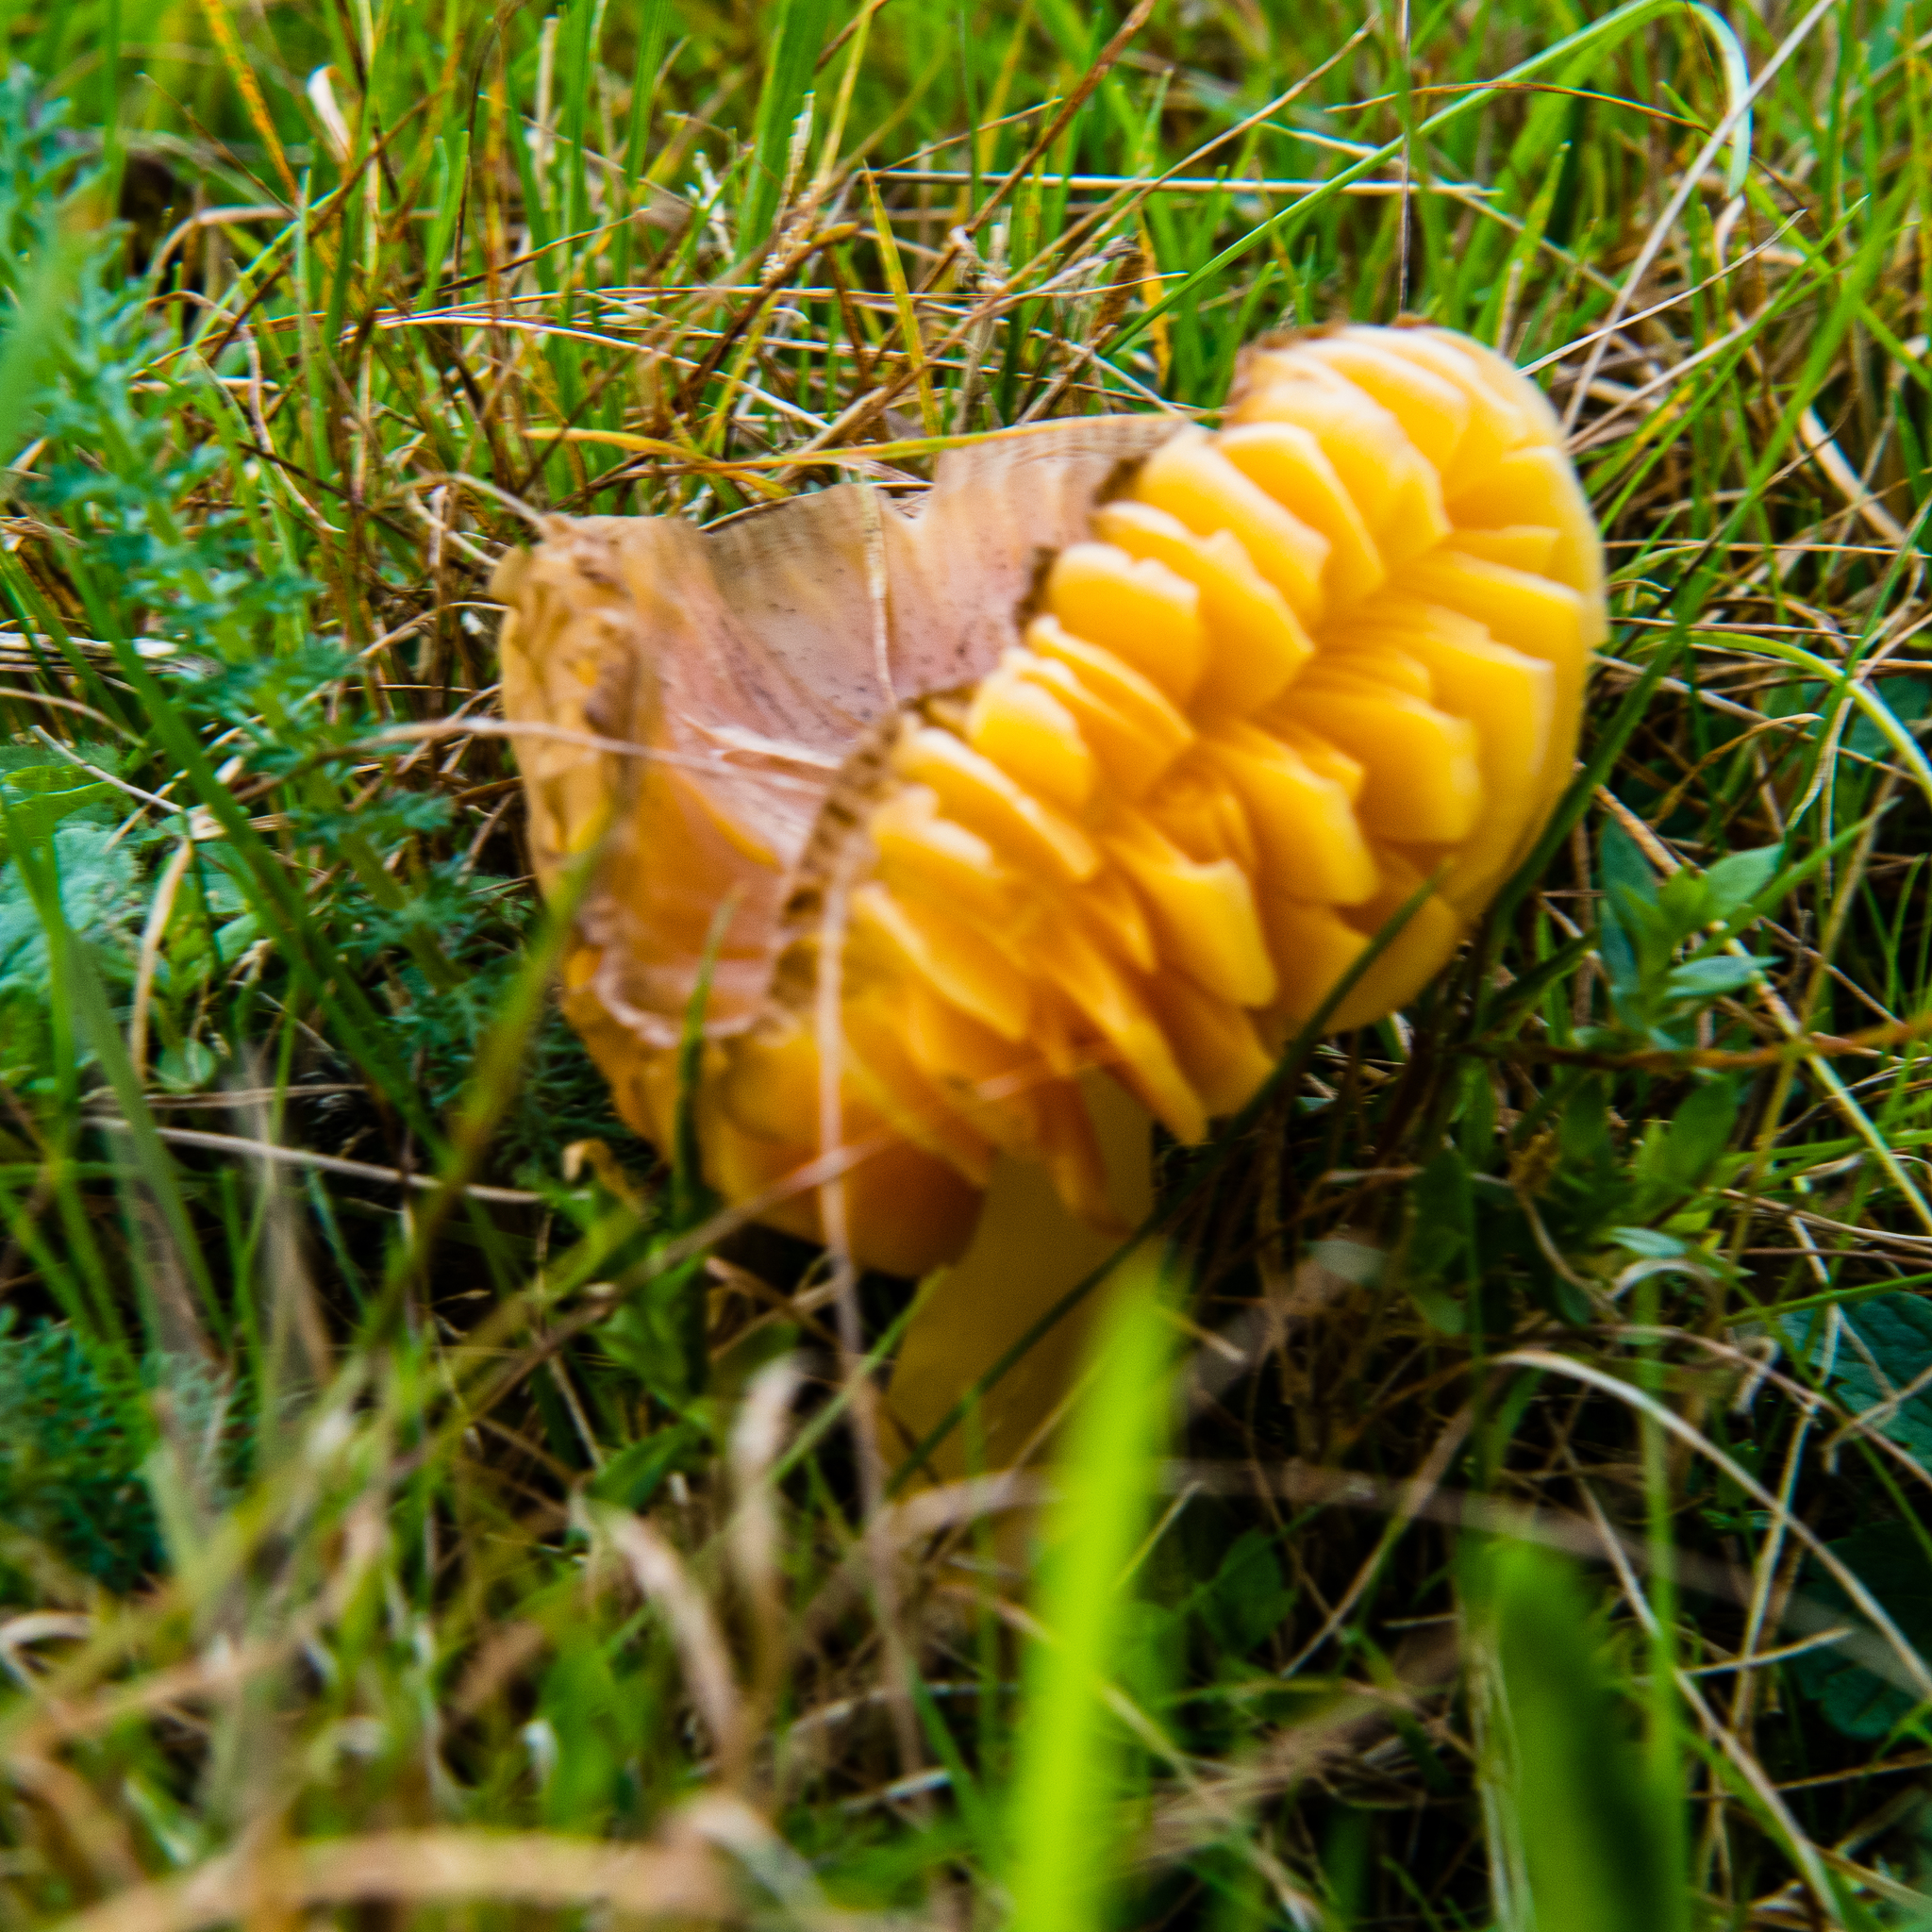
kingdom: Fungi
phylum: Basidiomycota
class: Agaricomycetes
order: Agaricales
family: Hygrophoraceae
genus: Gliophorus
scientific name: Gliophorus psittacinus
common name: Parrot wax-cap
